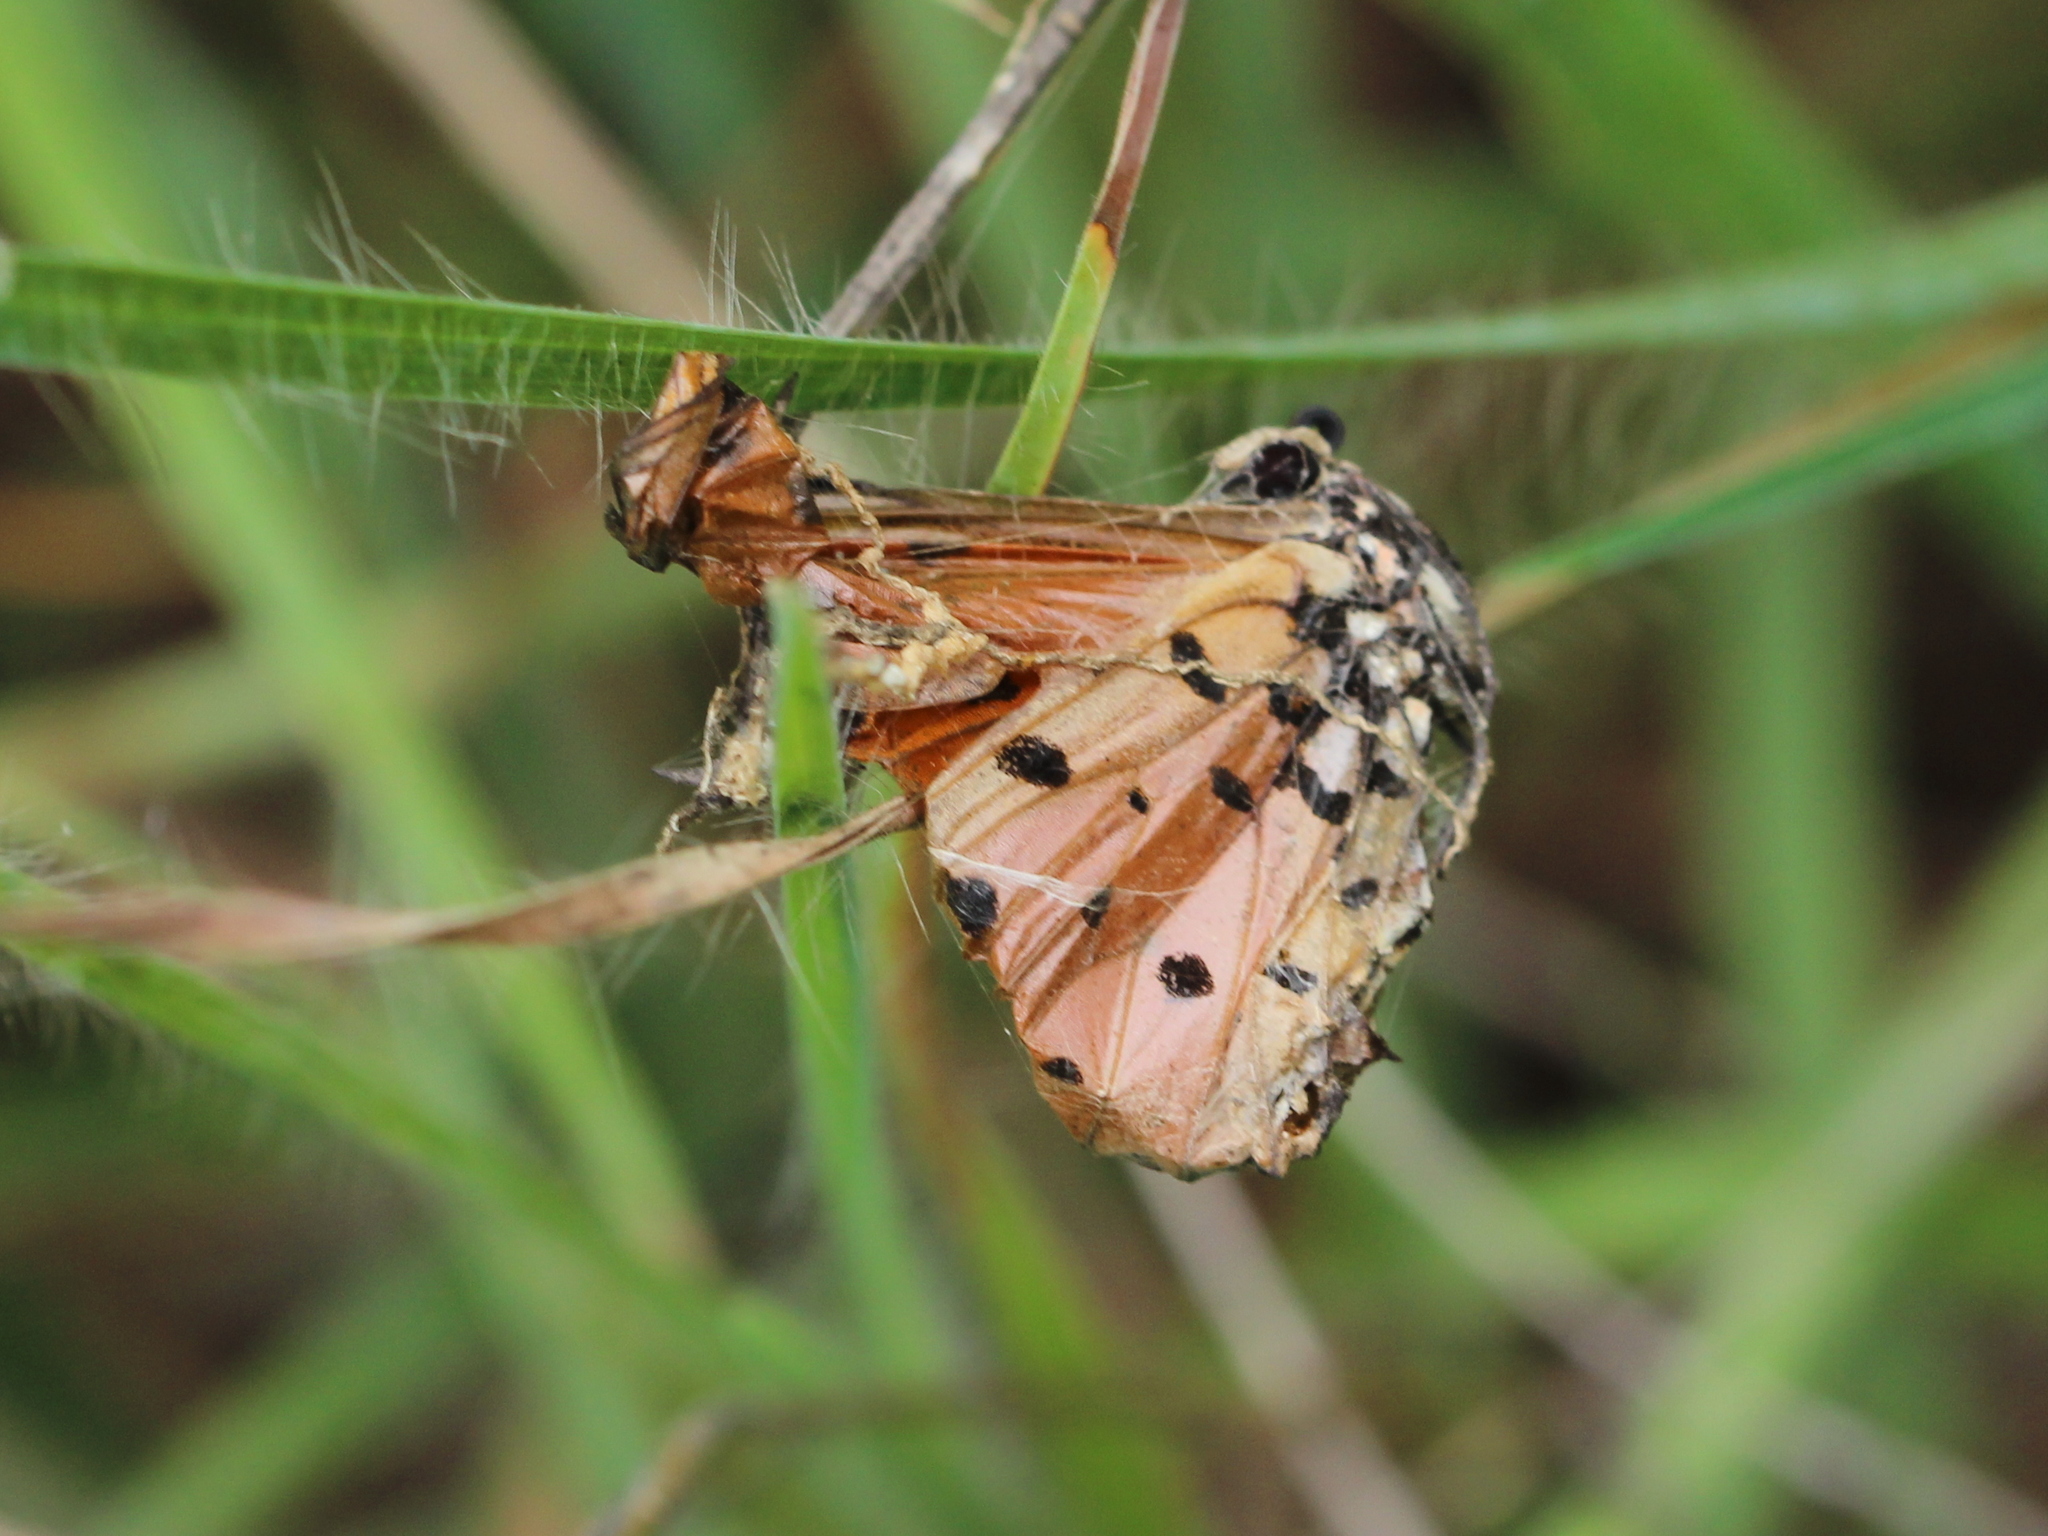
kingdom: Animalia
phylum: Arthropoda
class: Insecta
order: Lepidoptera
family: Nymphalidae
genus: Acraea
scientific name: Acraea terpsicore
